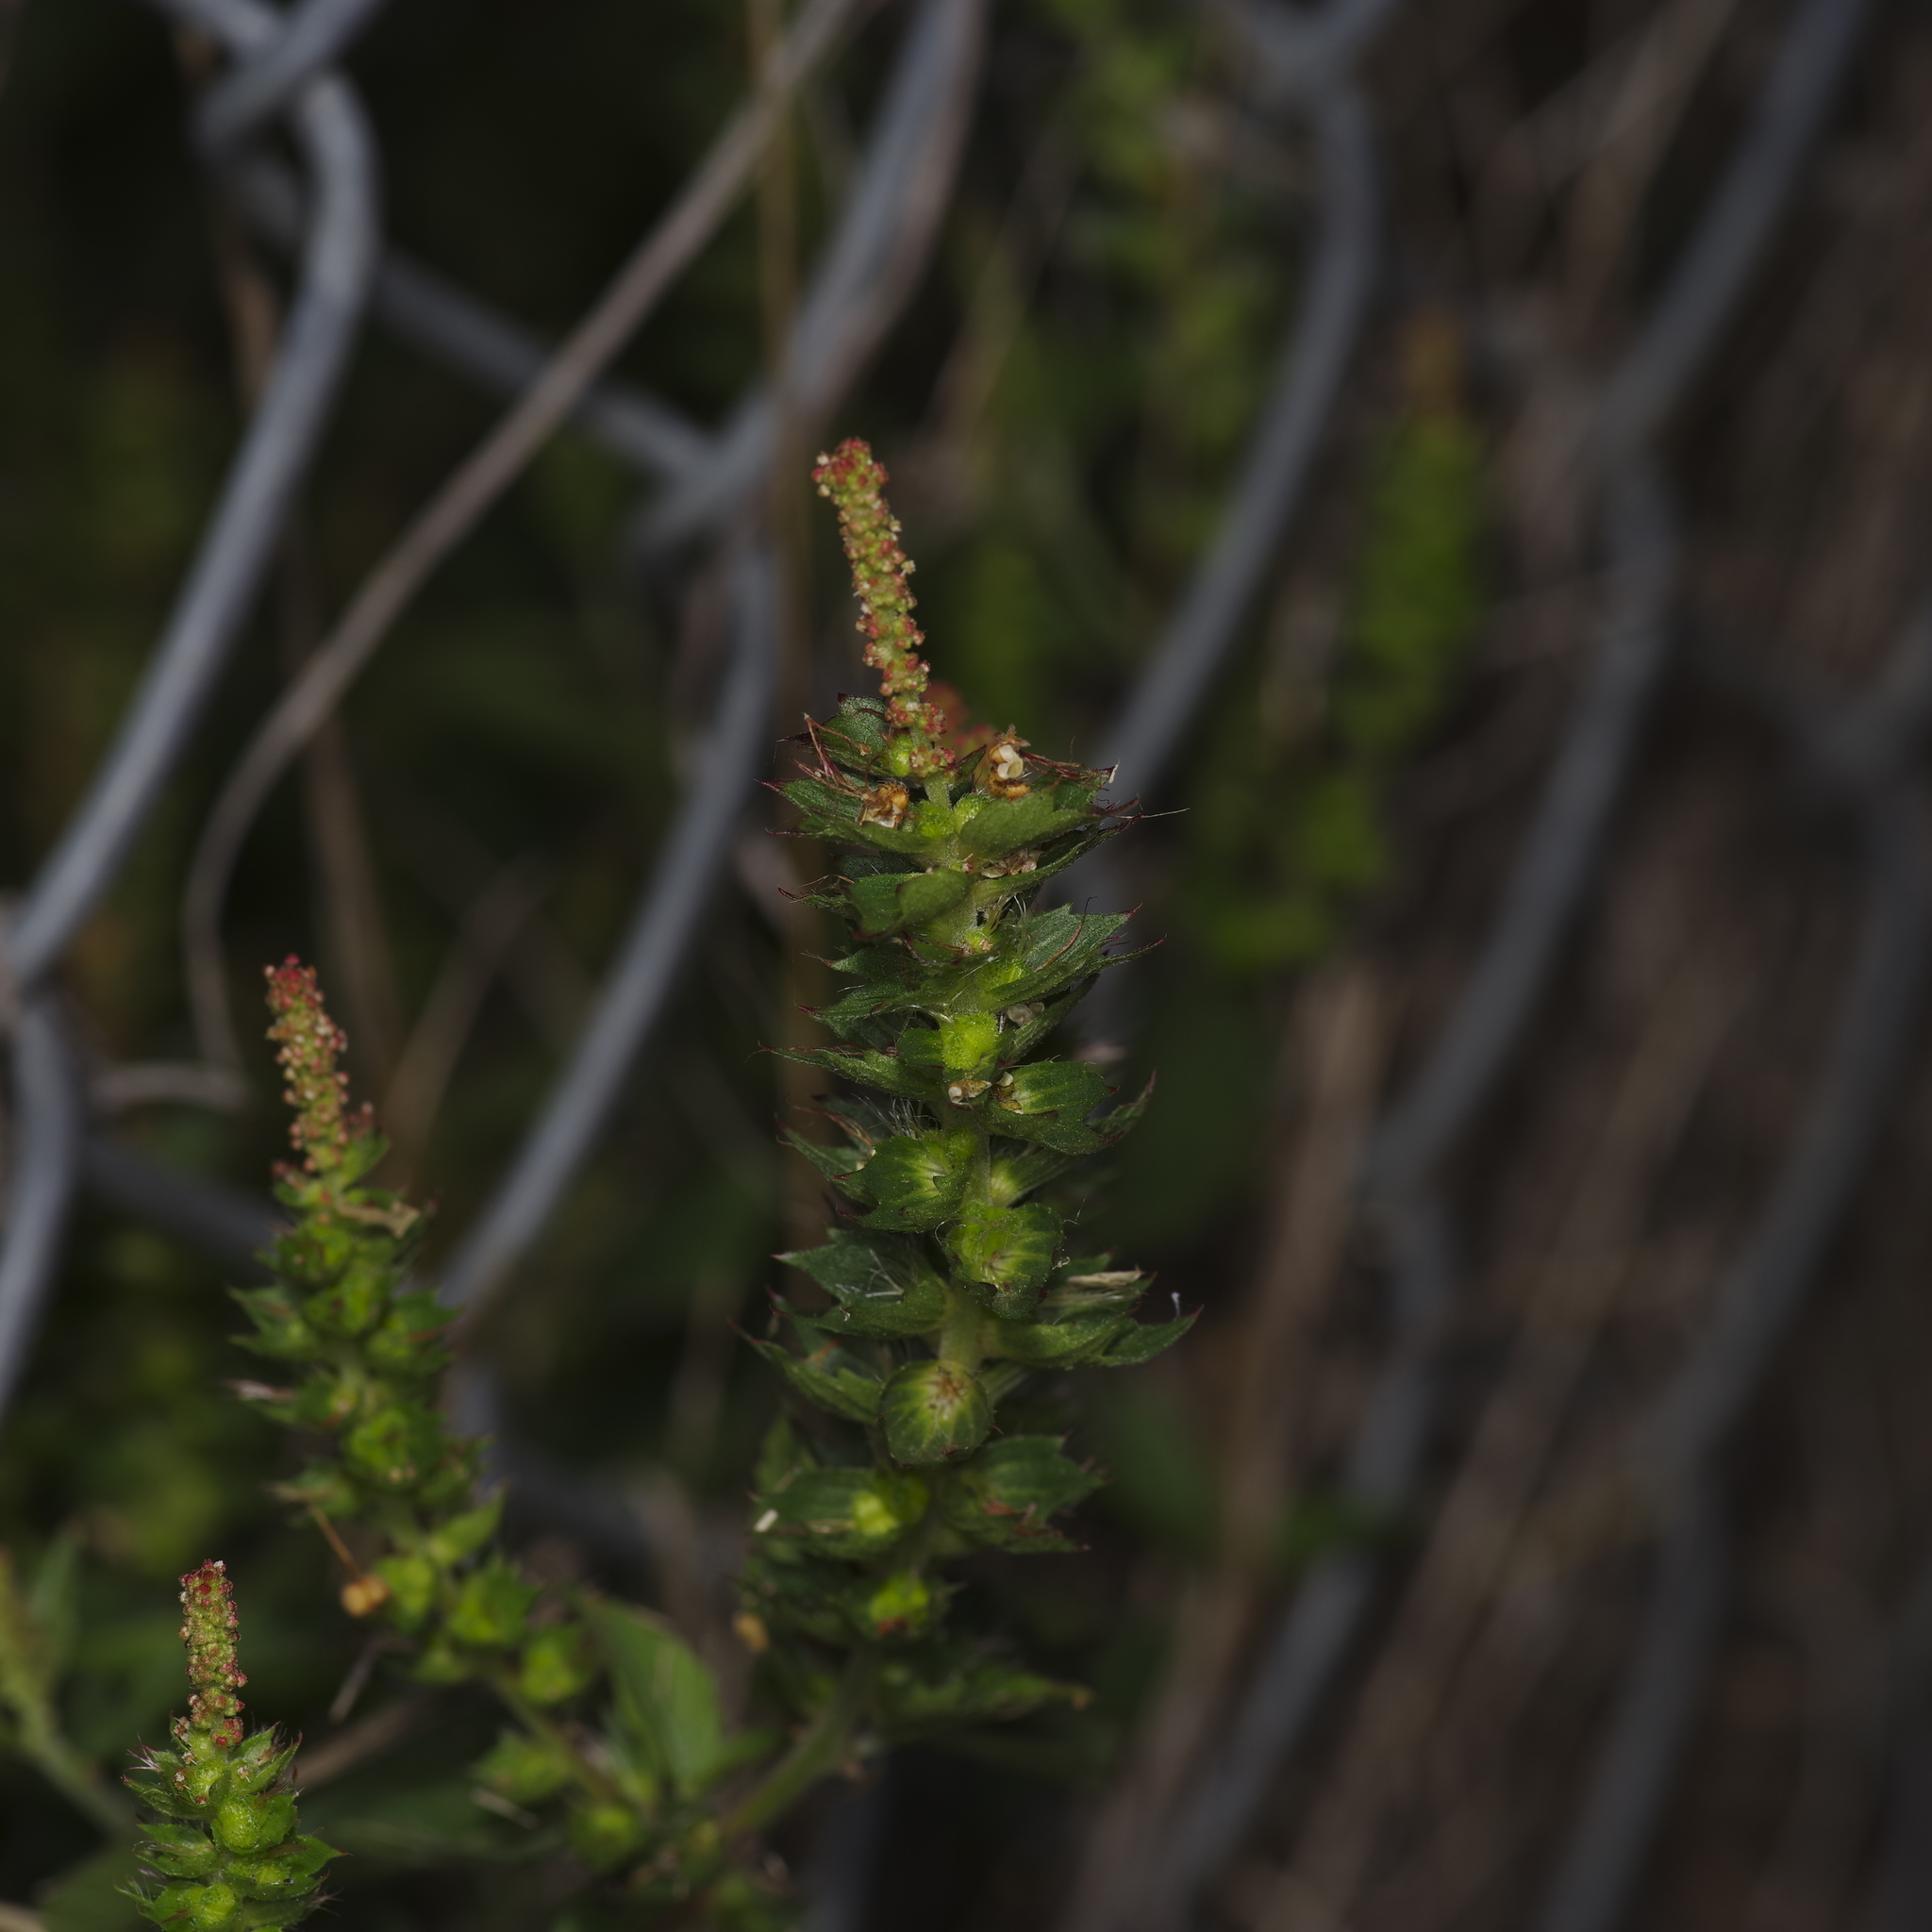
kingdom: Plantae
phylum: Tracheophyta
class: Magnoliopsida
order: Malpighiales
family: Euphorbiaceae
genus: Acalypha
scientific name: Acalypha phleoides
